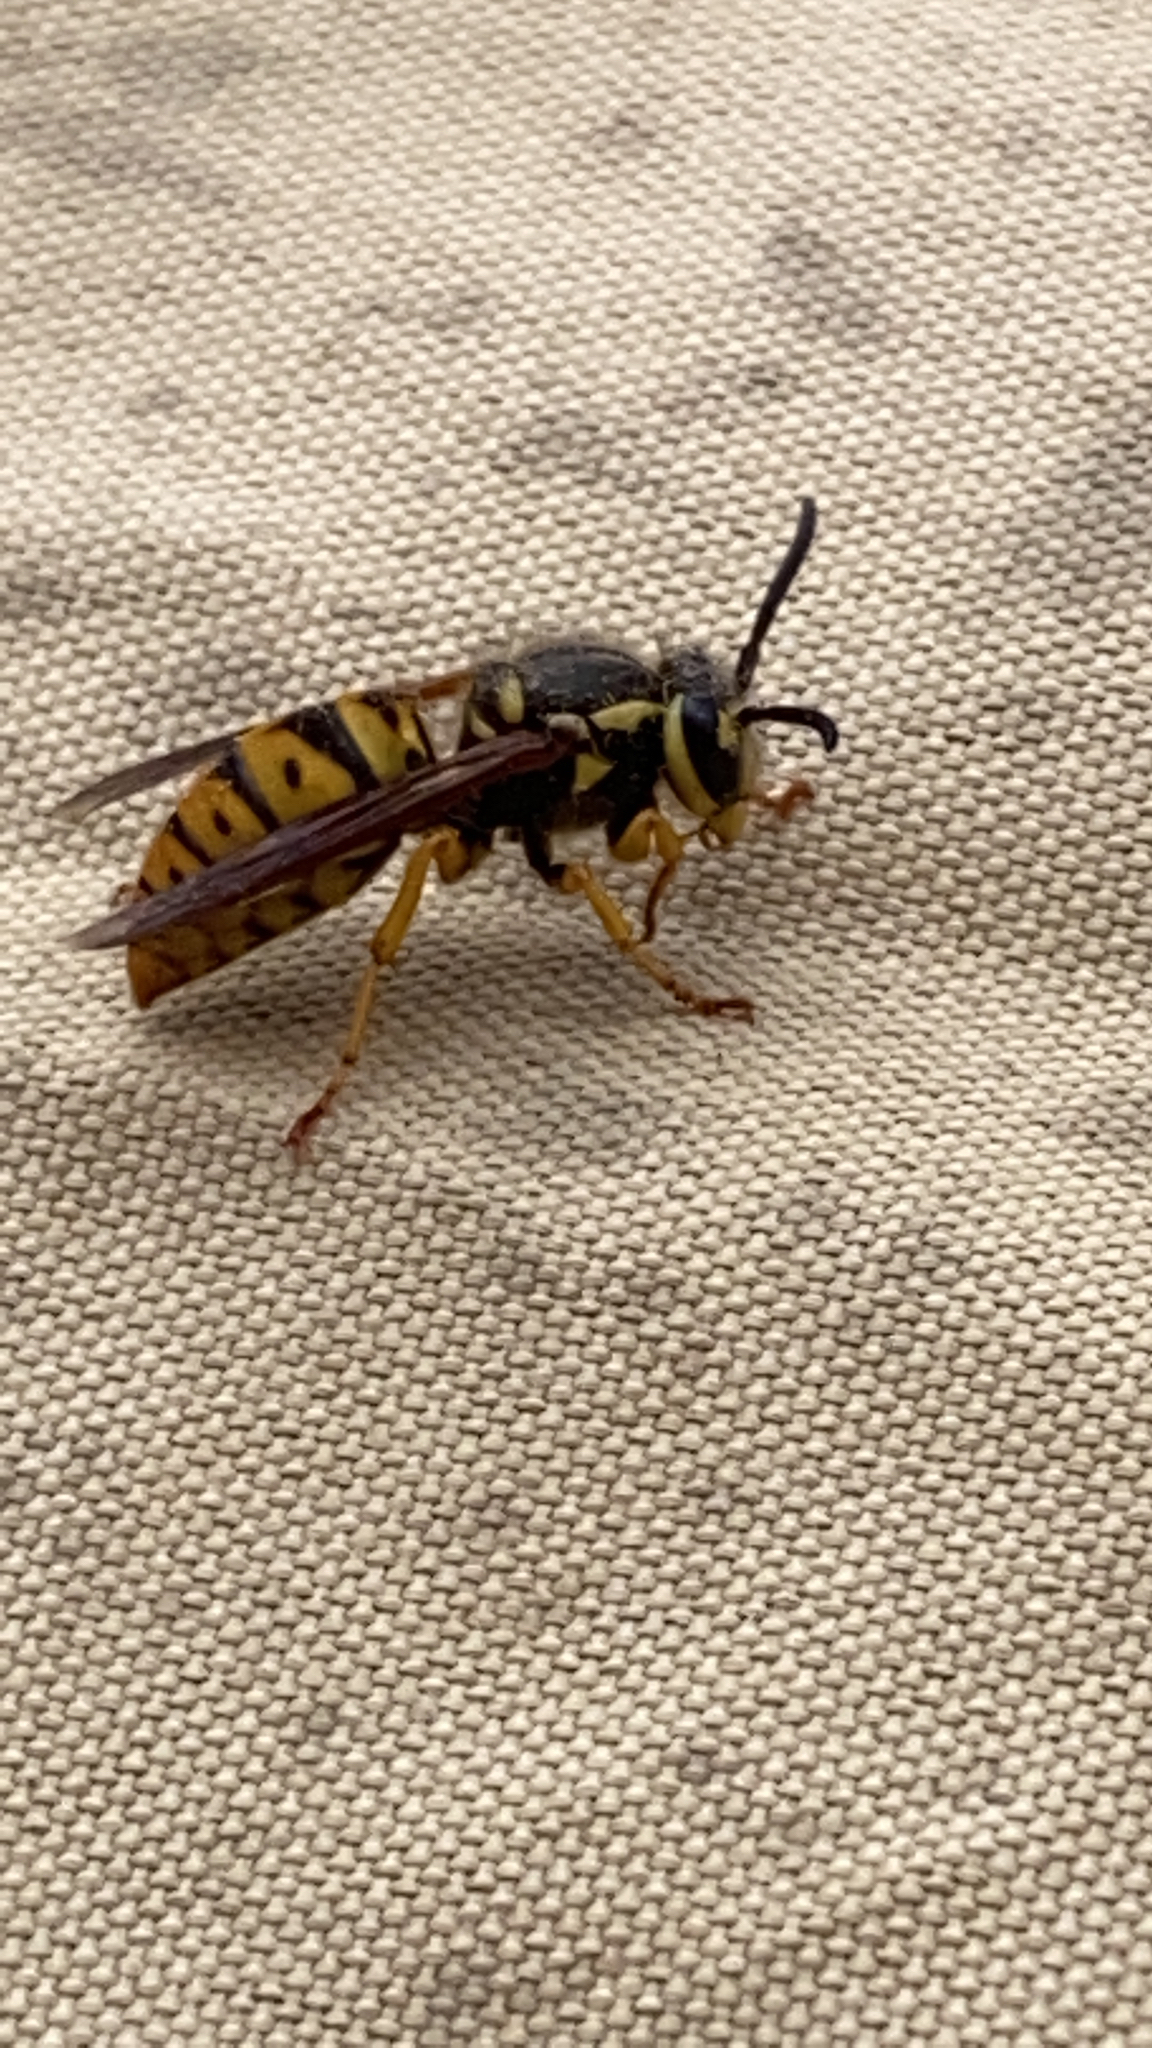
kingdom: Animalia
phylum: Arthropoda
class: Insecta
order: Hymenoptera
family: Vespidae
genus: Vespula
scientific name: Vespula maculifrons
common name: Eastern yellowjacket
